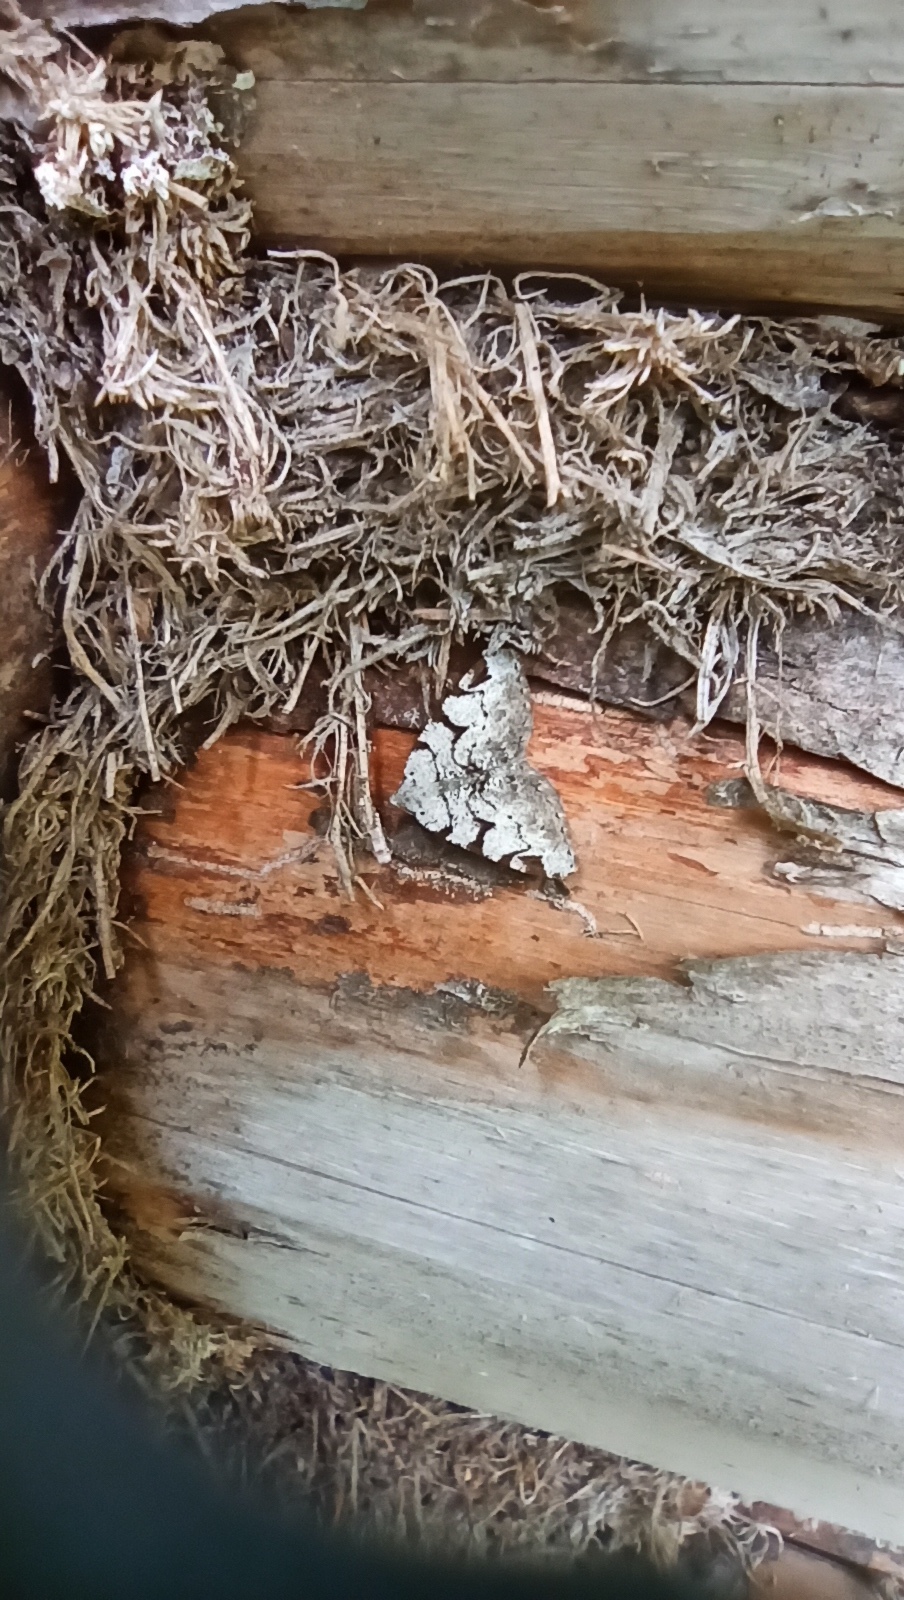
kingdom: Animalia
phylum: Arthropoda
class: Insecta
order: Lepidoptera
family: Geometridae
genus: Macaria
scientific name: Macaria wauaria
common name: V-moth
